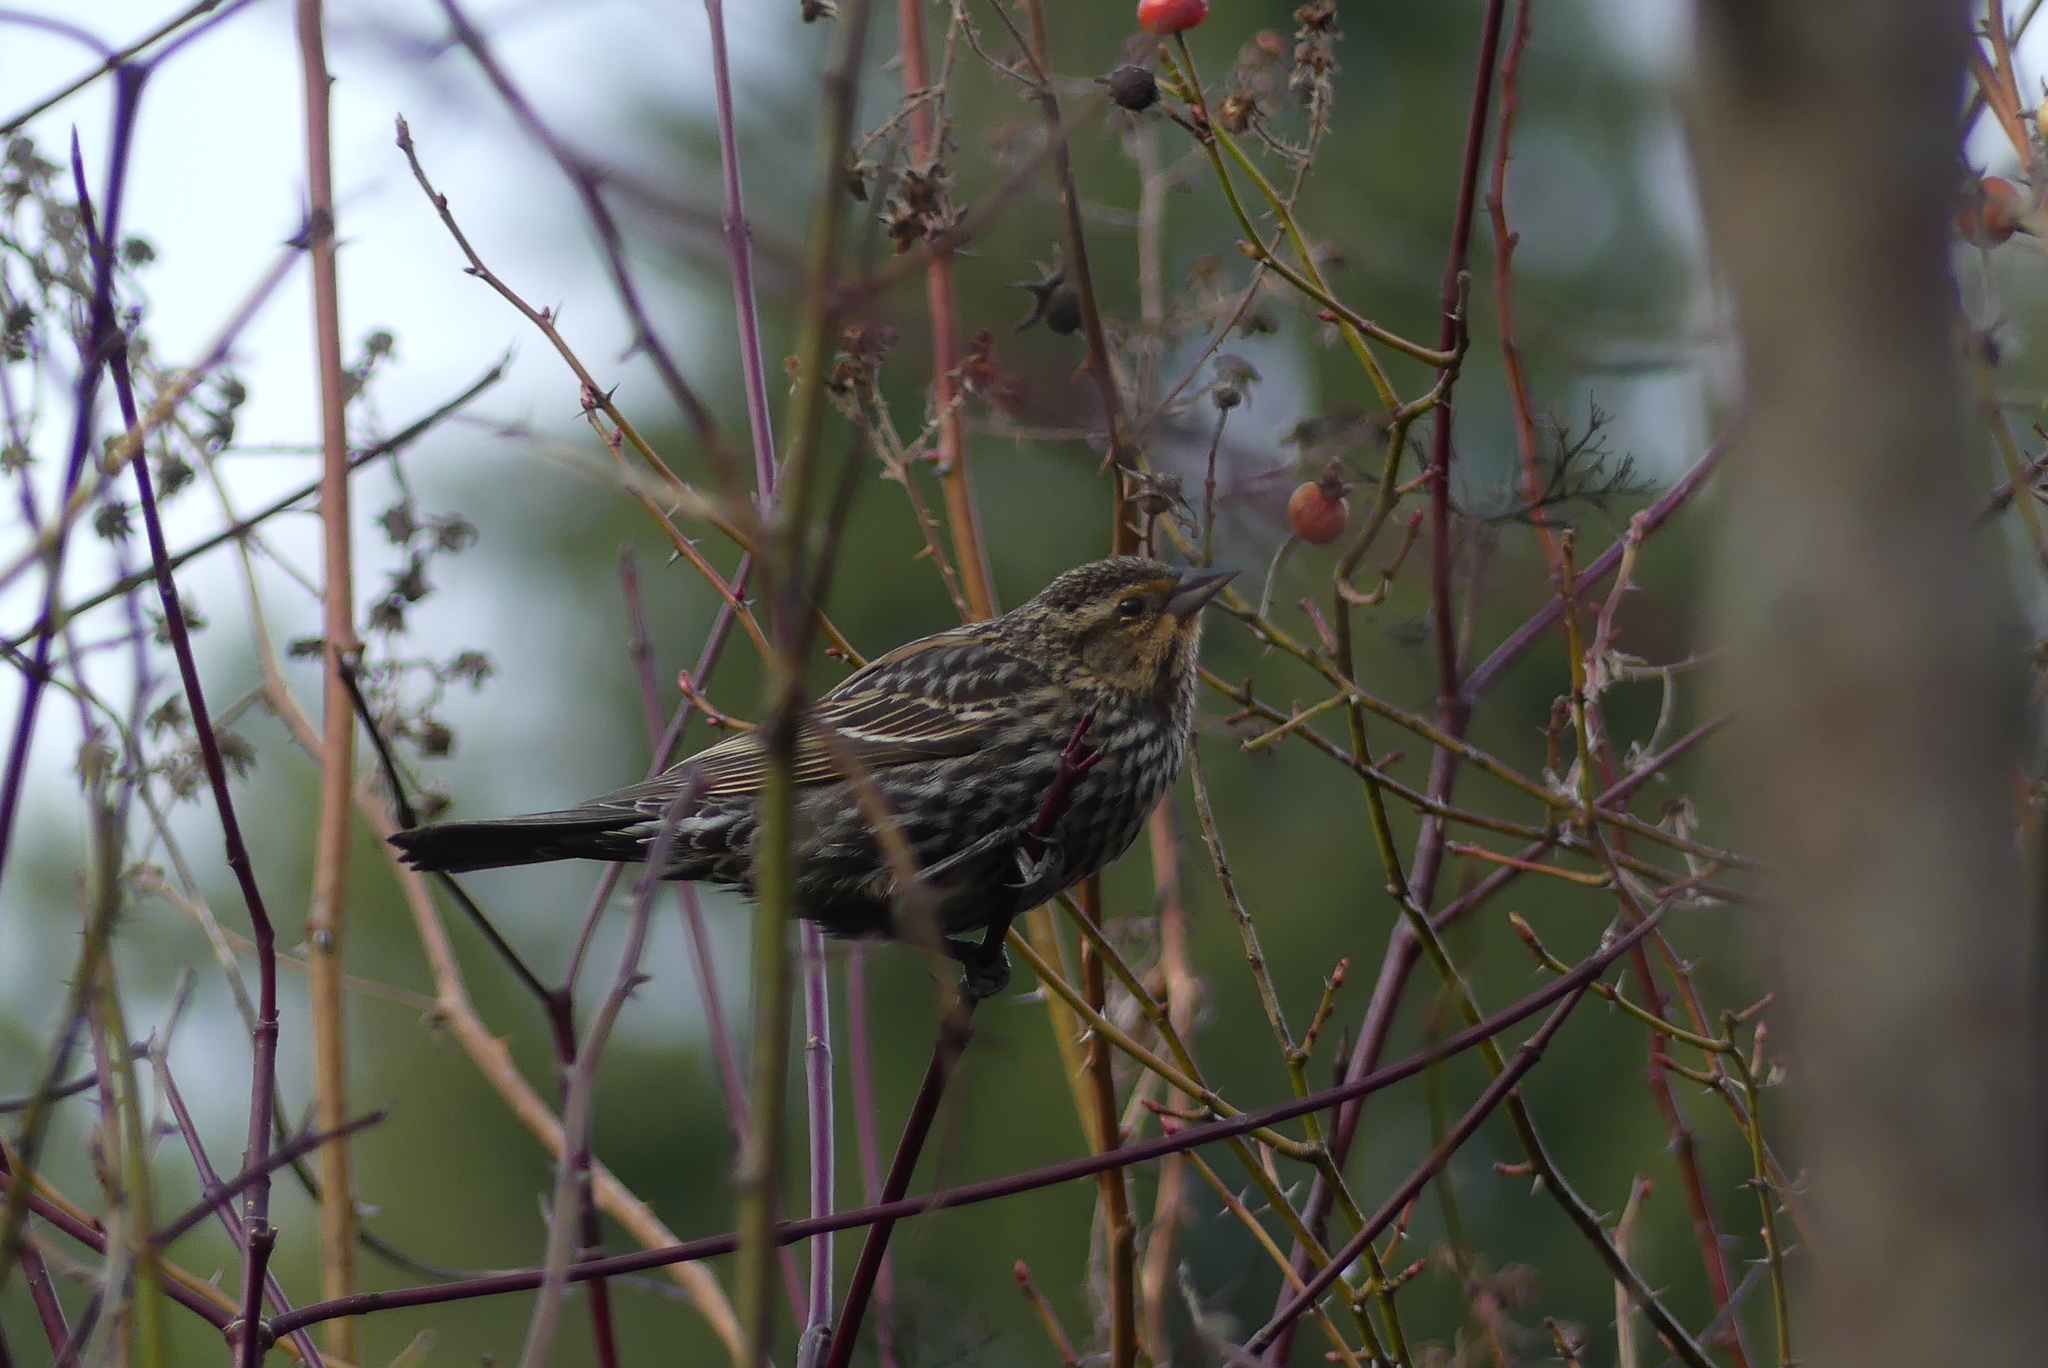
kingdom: Animalia
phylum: Chordata
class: Aves
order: Passeriformes
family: Icteridae
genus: Agelaius
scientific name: Agelaius phoeniceus
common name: Red-winged blackbird
